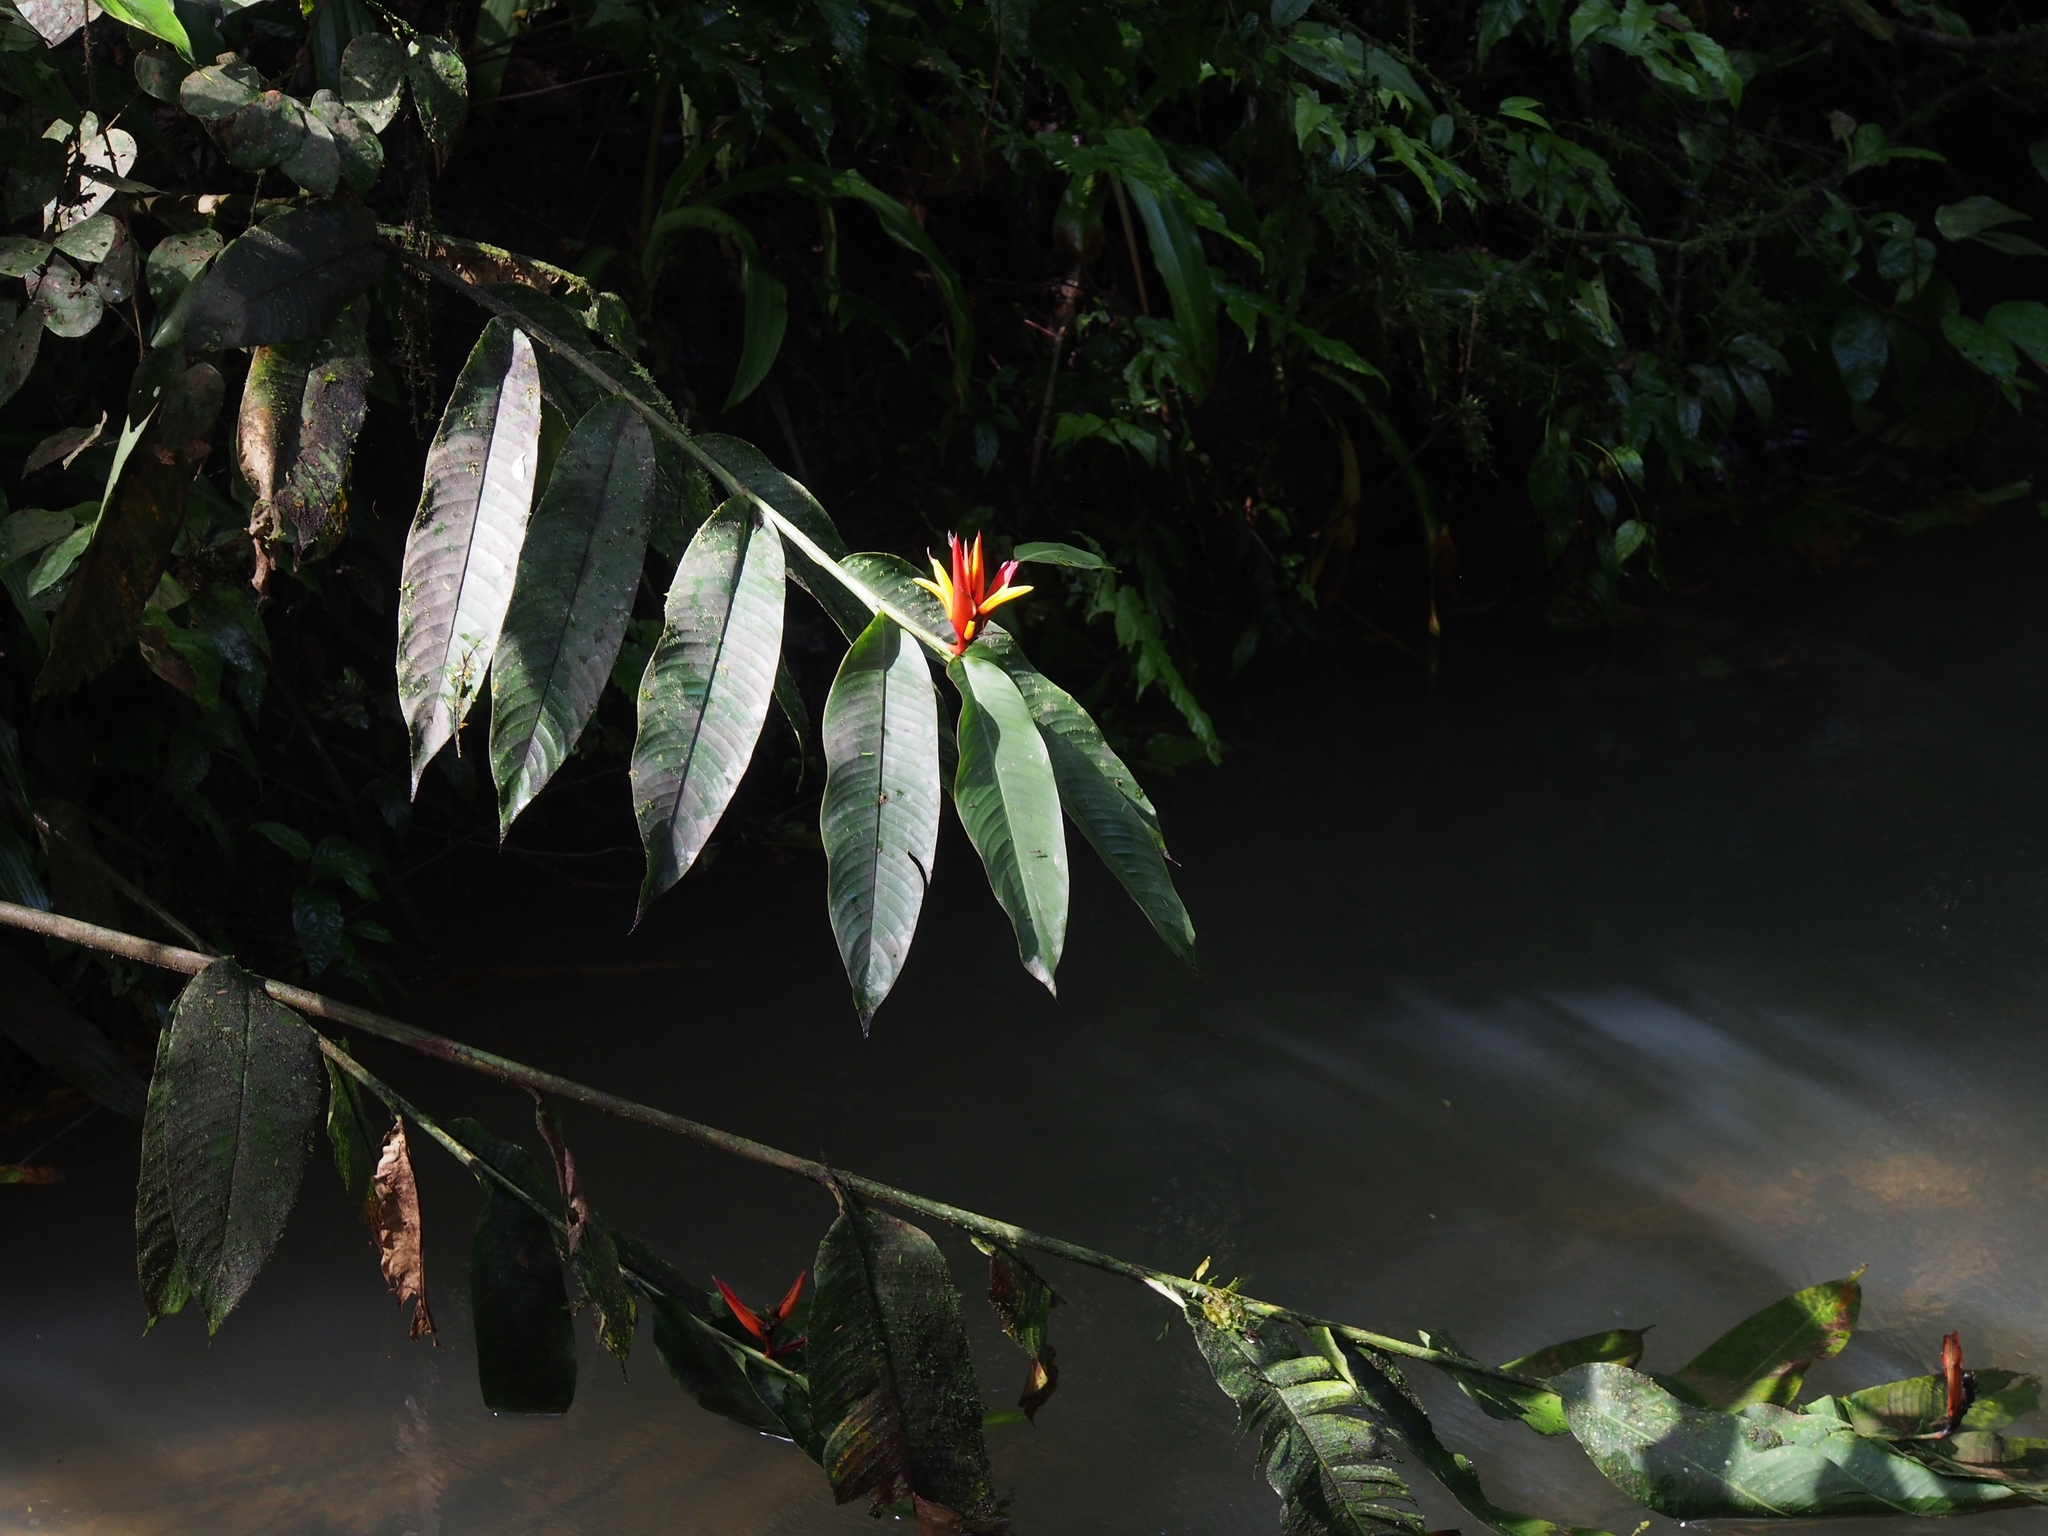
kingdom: Plantae
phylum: Tracheophyta
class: Liliopsida
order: Zingiberales
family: Heliconiaceae
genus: Heliconia
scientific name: Heliconia mathiasiae
